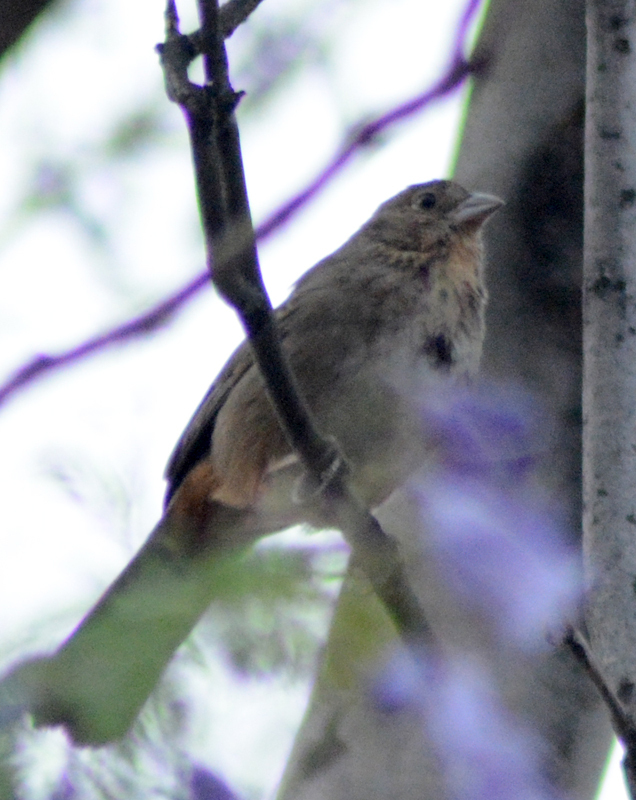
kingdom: Animalia
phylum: Chordata
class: Aves
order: Passeriformes
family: Passerellidae
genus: Melozone
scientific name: Melozone fusca
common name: Canyon towhee
